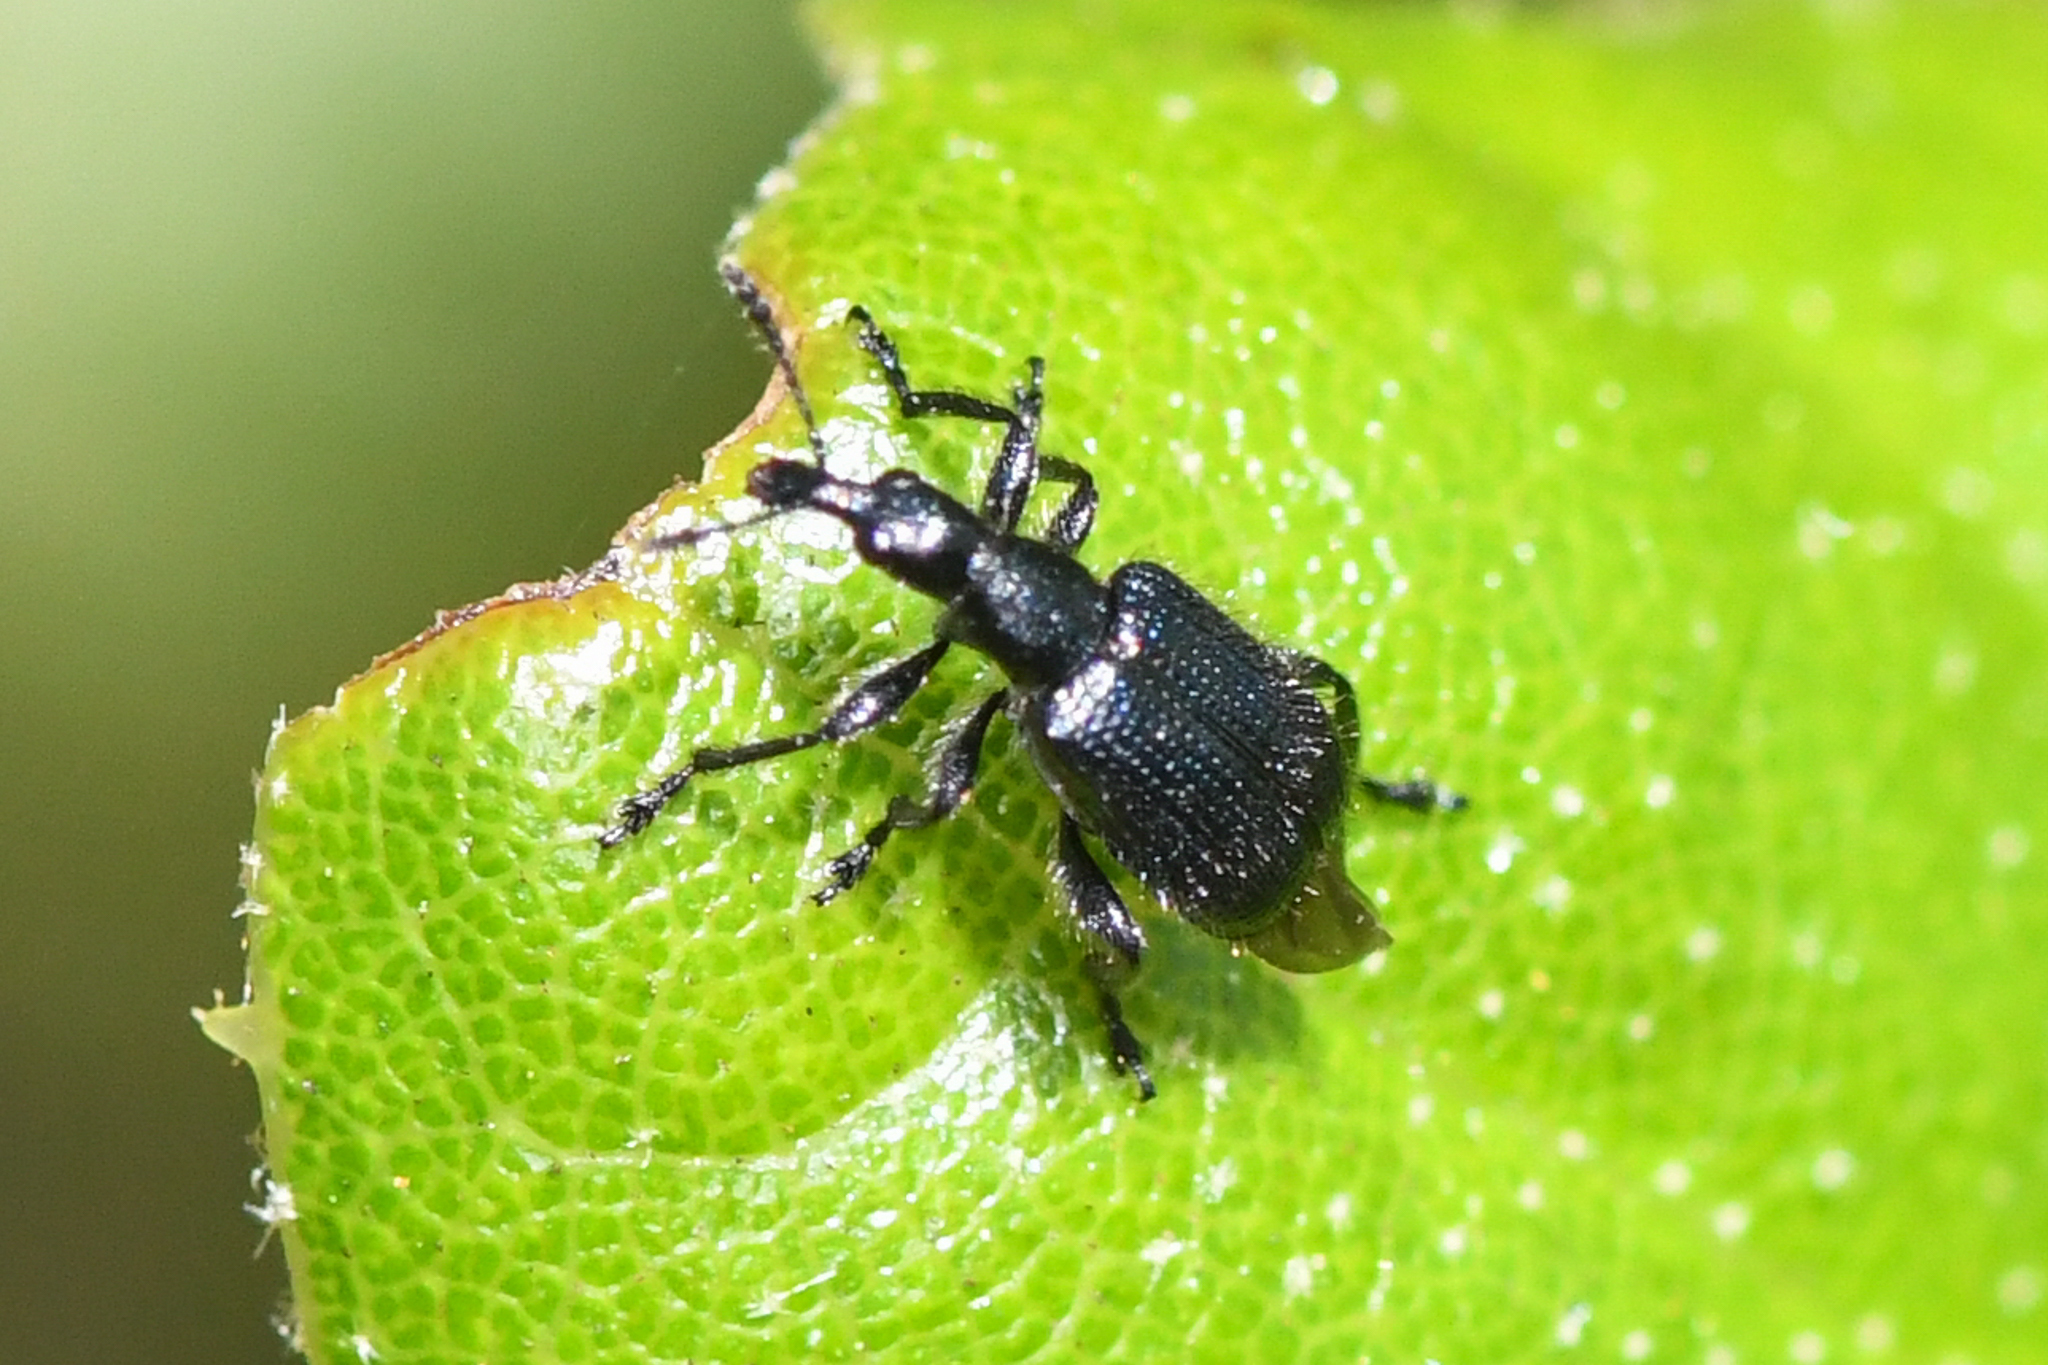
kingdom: Animalia
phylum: Arthropoda
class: Insecta
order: Coleoptera
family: Attelabidae
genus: Deporaus
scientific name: Deporaus glastinus
